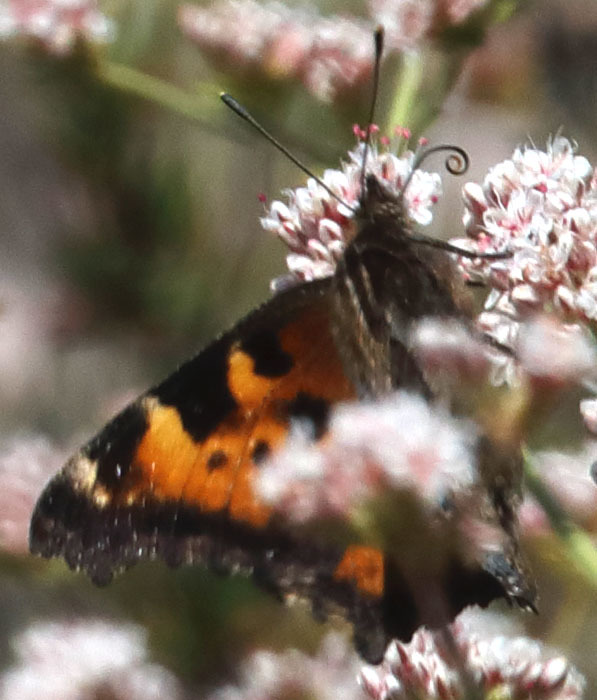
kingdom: Animalia
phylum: Arthropoda
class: Insecta
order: Lepidoptera
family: Nymphalidae
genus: Nymphalis
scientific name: Nymphalis californica
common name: California tortoiseshell
